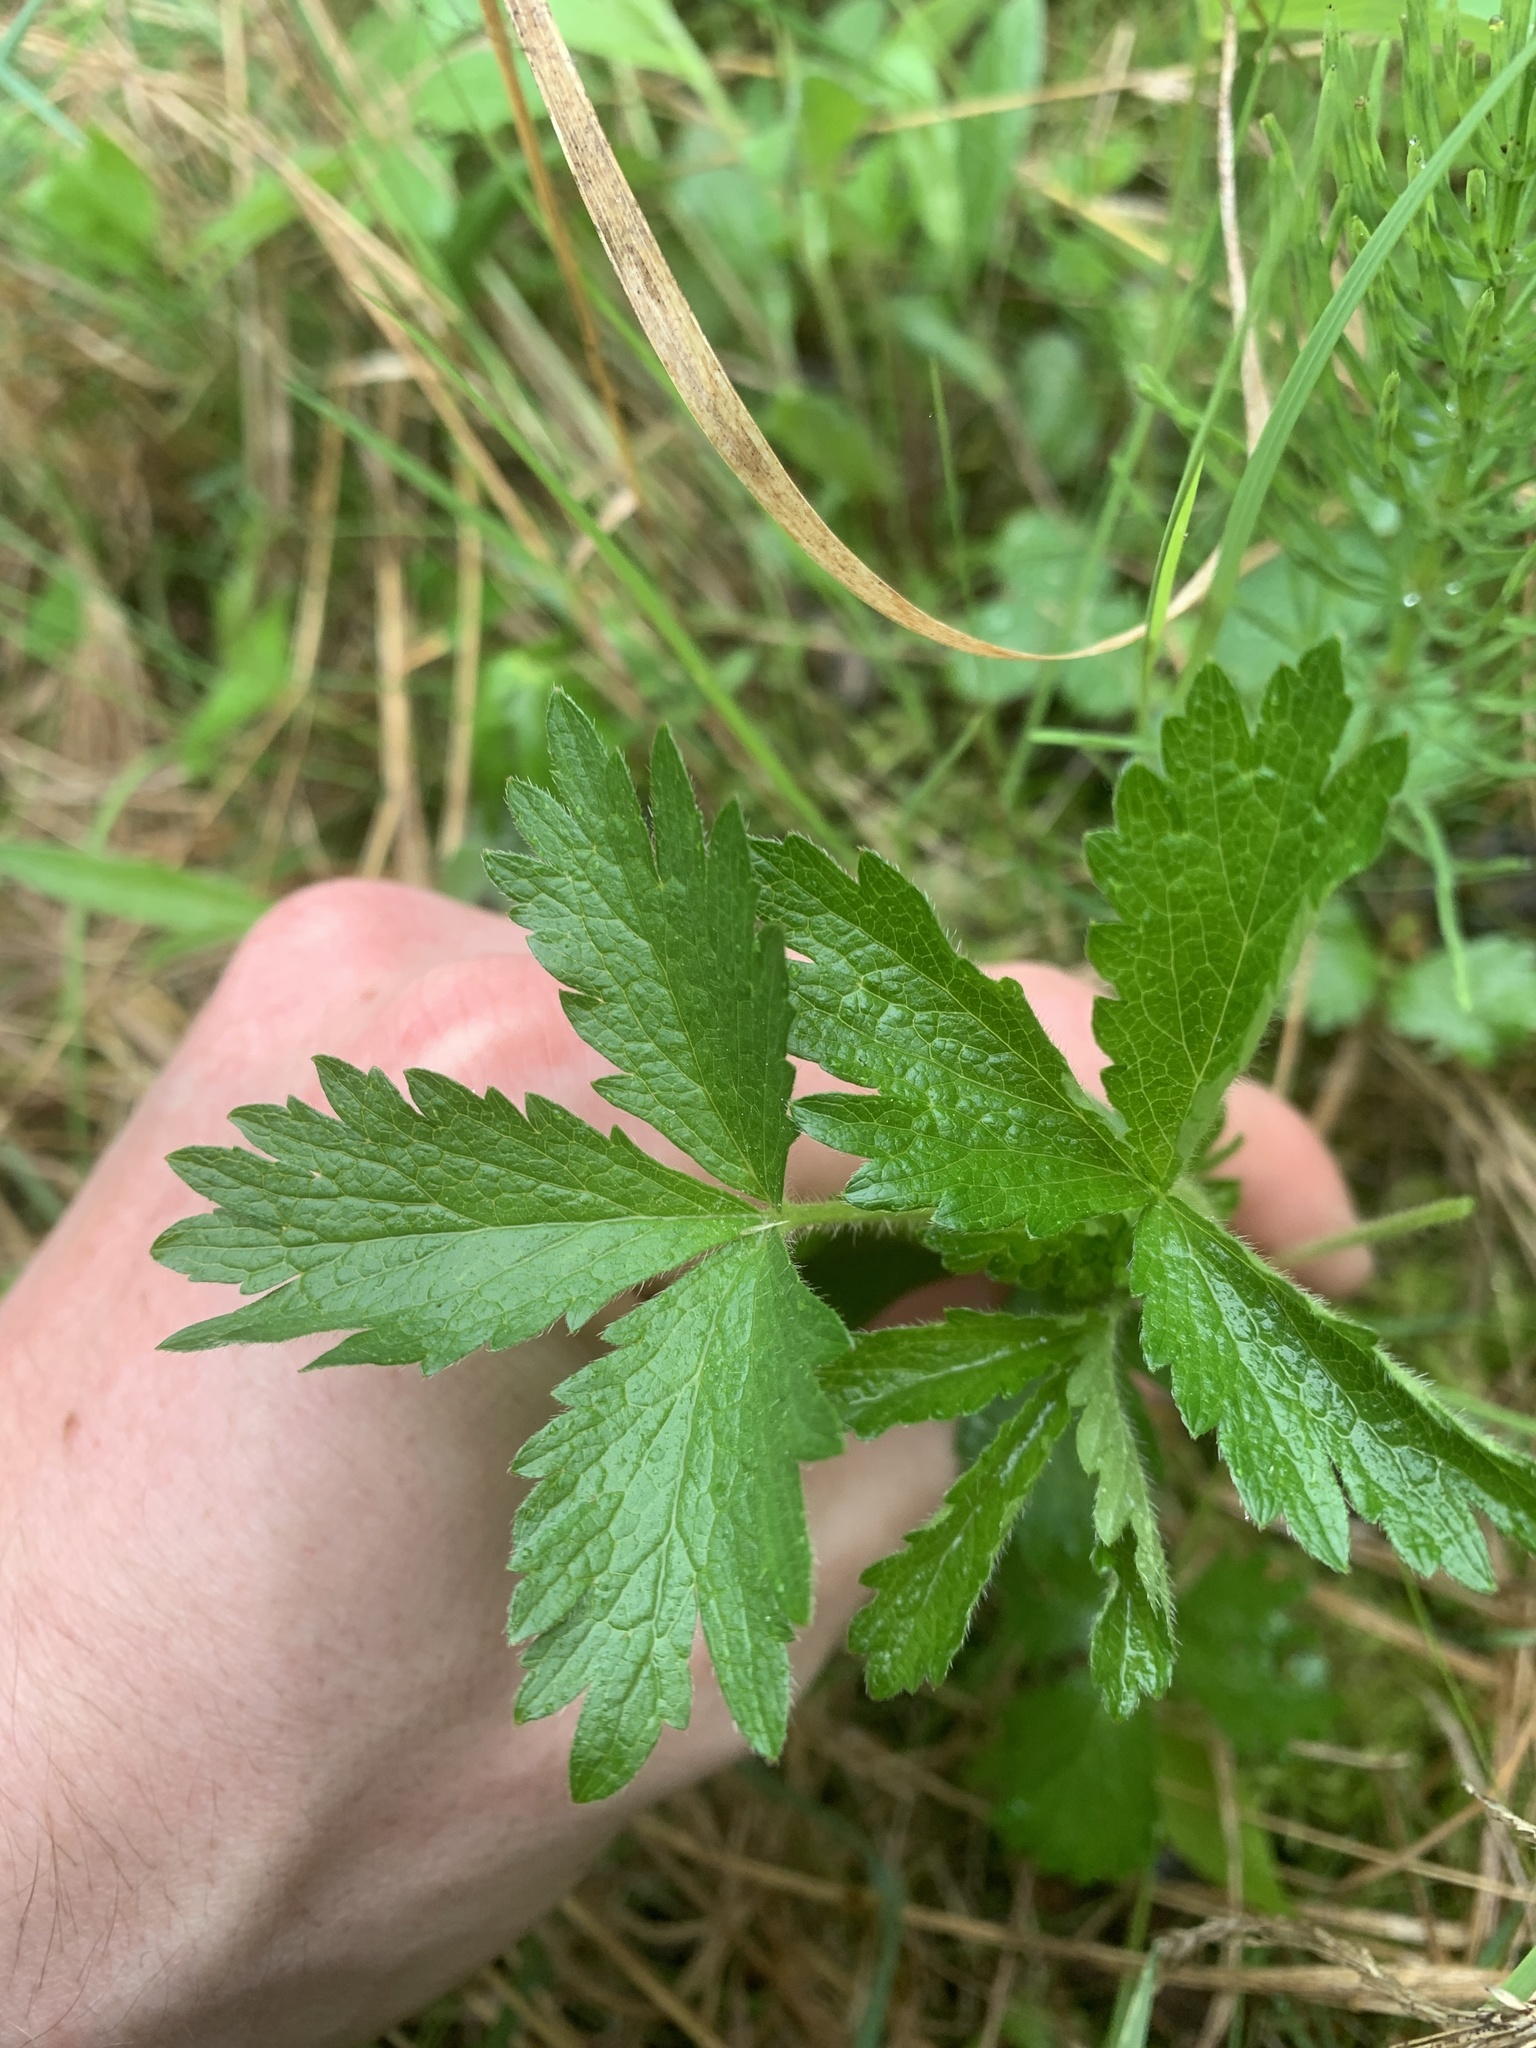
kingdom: Plantae
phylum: Tracheophyta
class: Magnoliopsida
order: Rosales
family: Rosaceae
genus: Potentilla
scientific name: Potentilla norvegica
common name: Ternate-leaved cinquefoil
